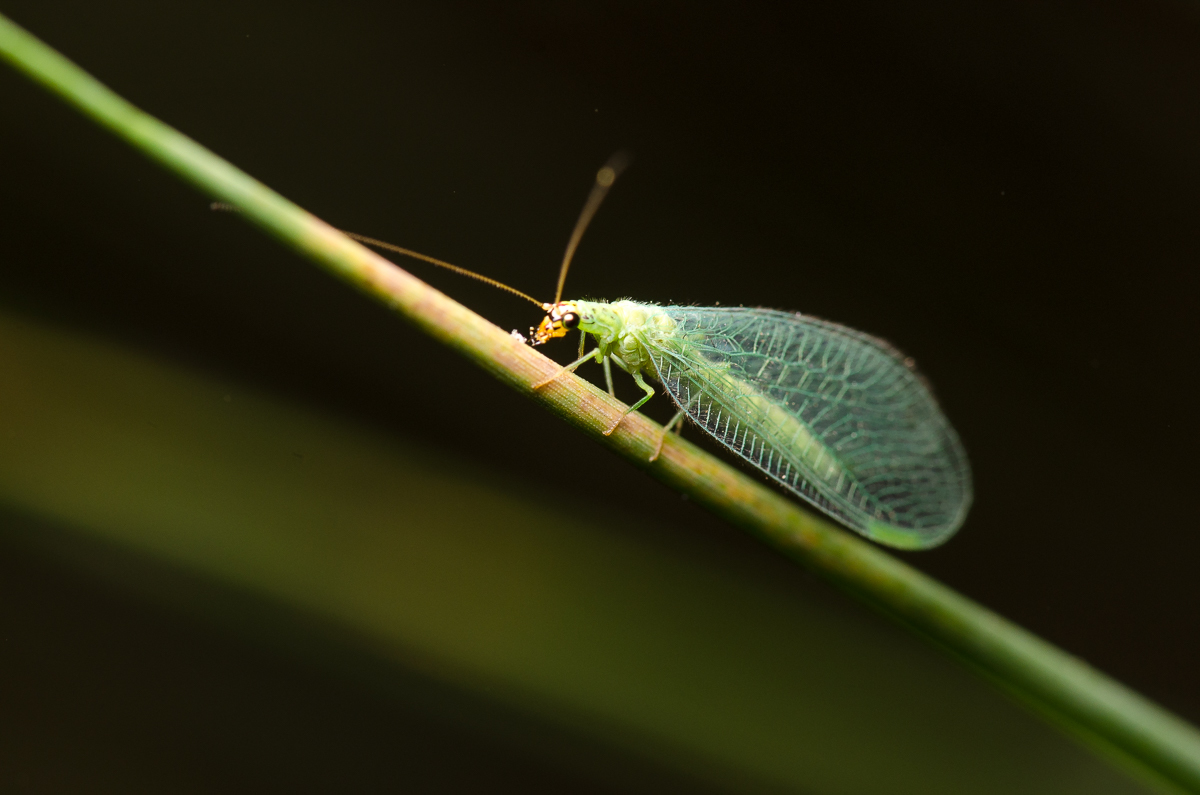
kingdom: Animalia
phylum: Arthropoda
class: Insecta
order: Neuroptera
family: Chrysopidae
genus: Chrysopa
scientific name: Chrysopa oculata
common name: Golden-eyed lacewing
